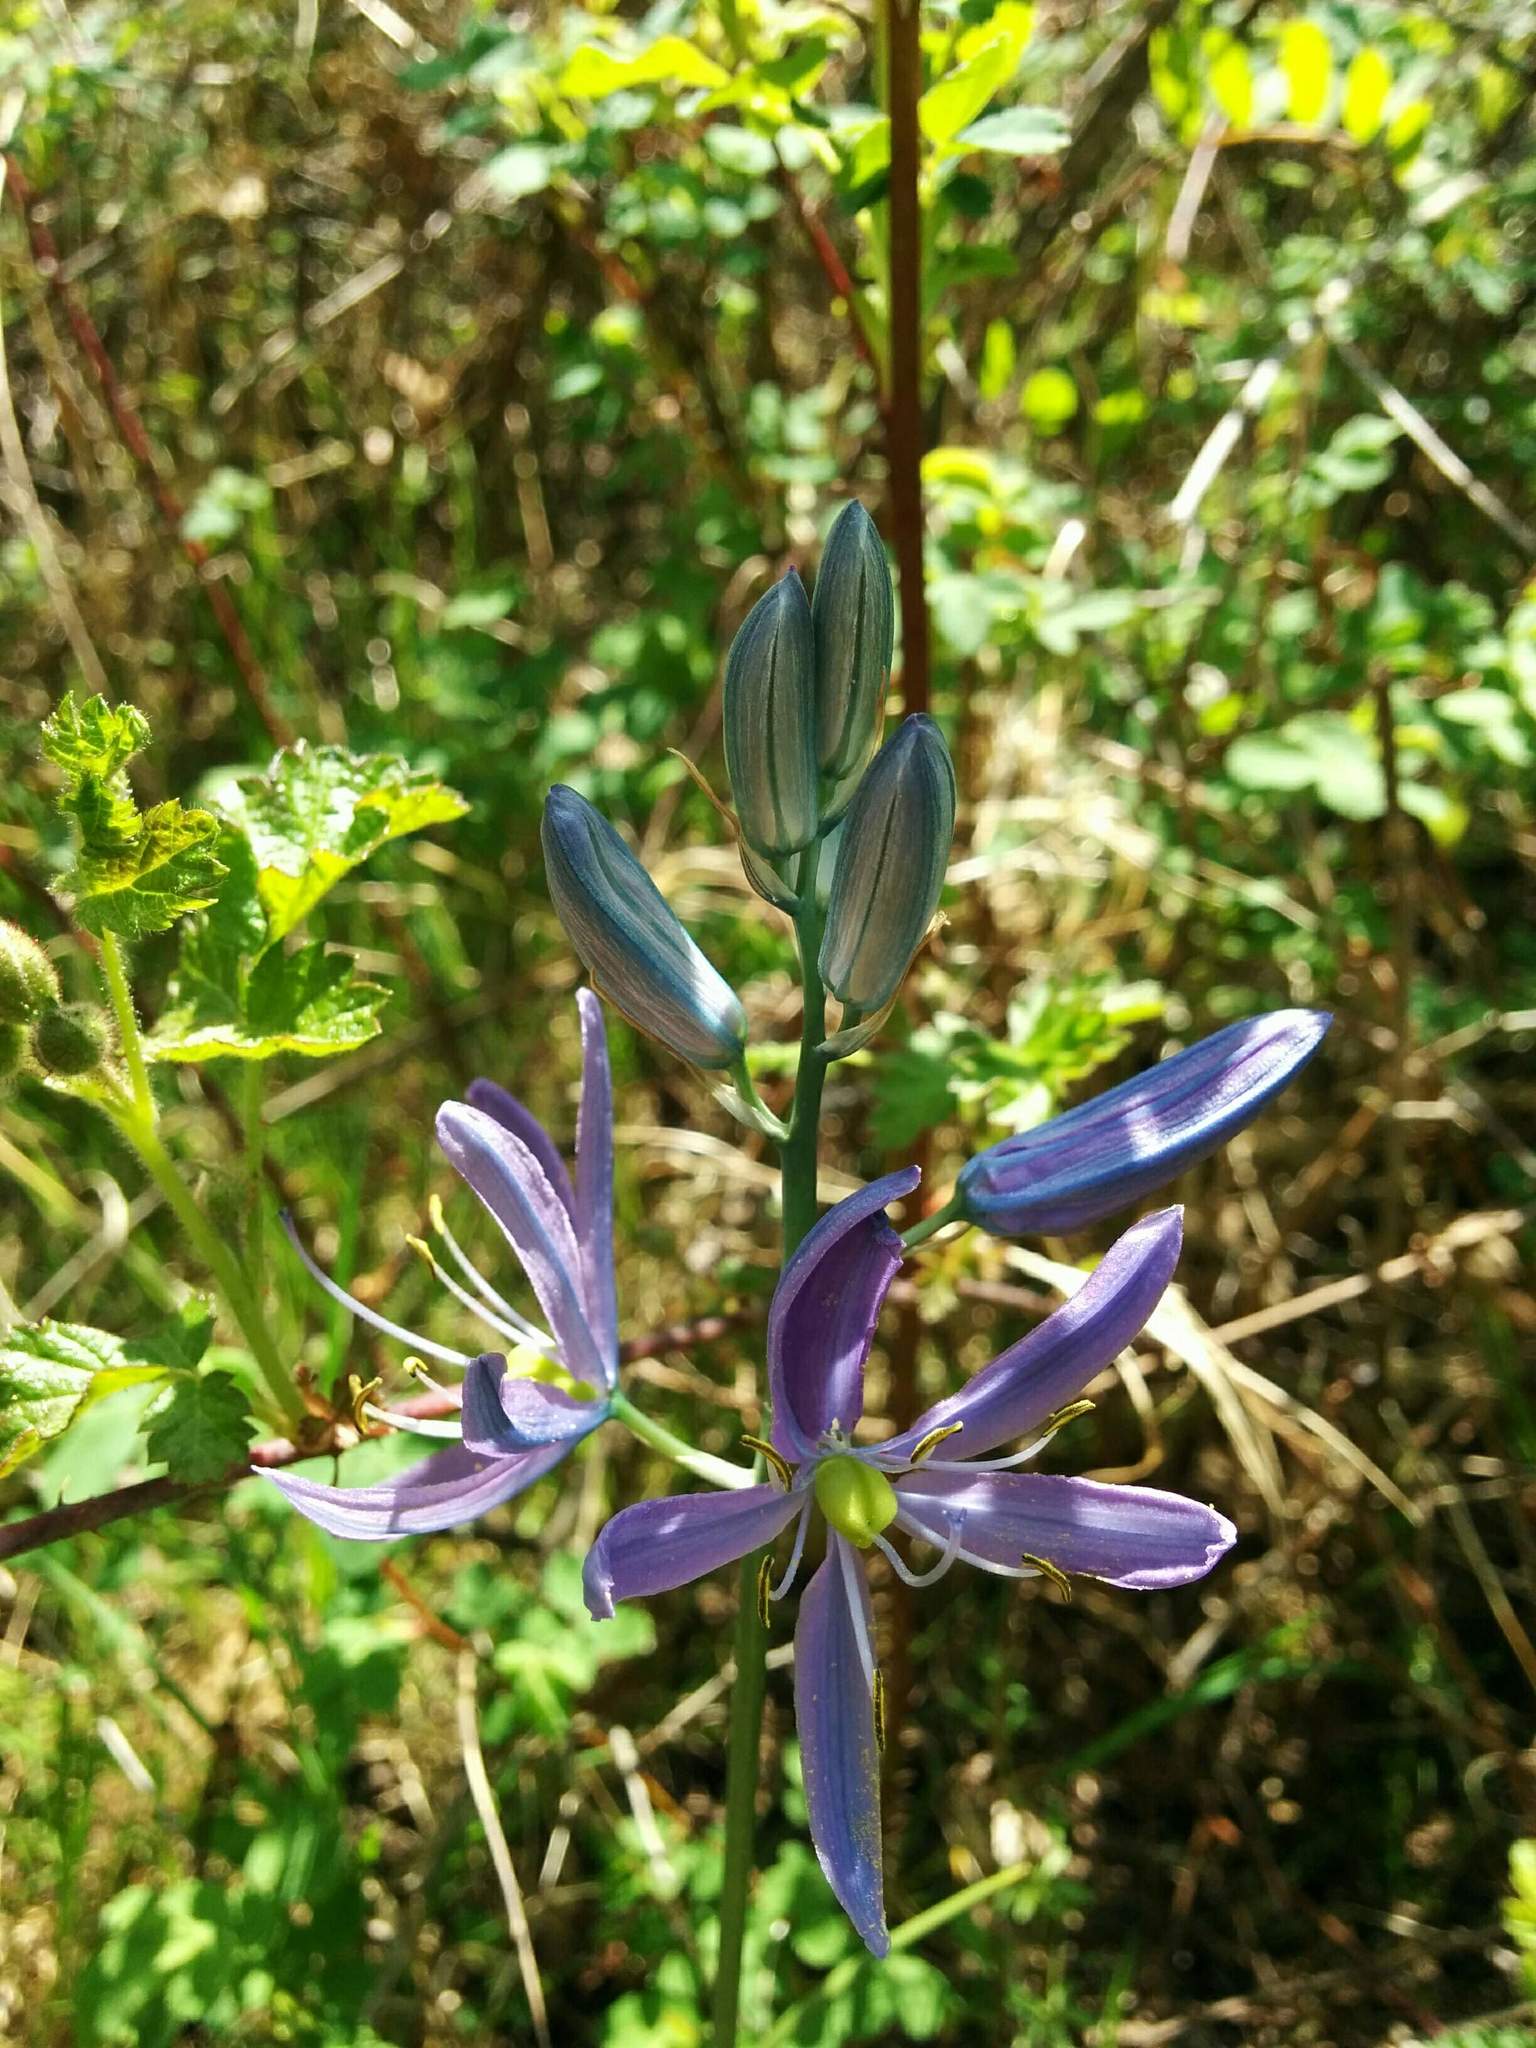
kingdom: Plantae
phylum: Tracheophyta
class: Liliopsida
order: Asparagales
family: Asparagaceae
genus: Camassia
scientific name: Camassia quamash
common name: Common camas
